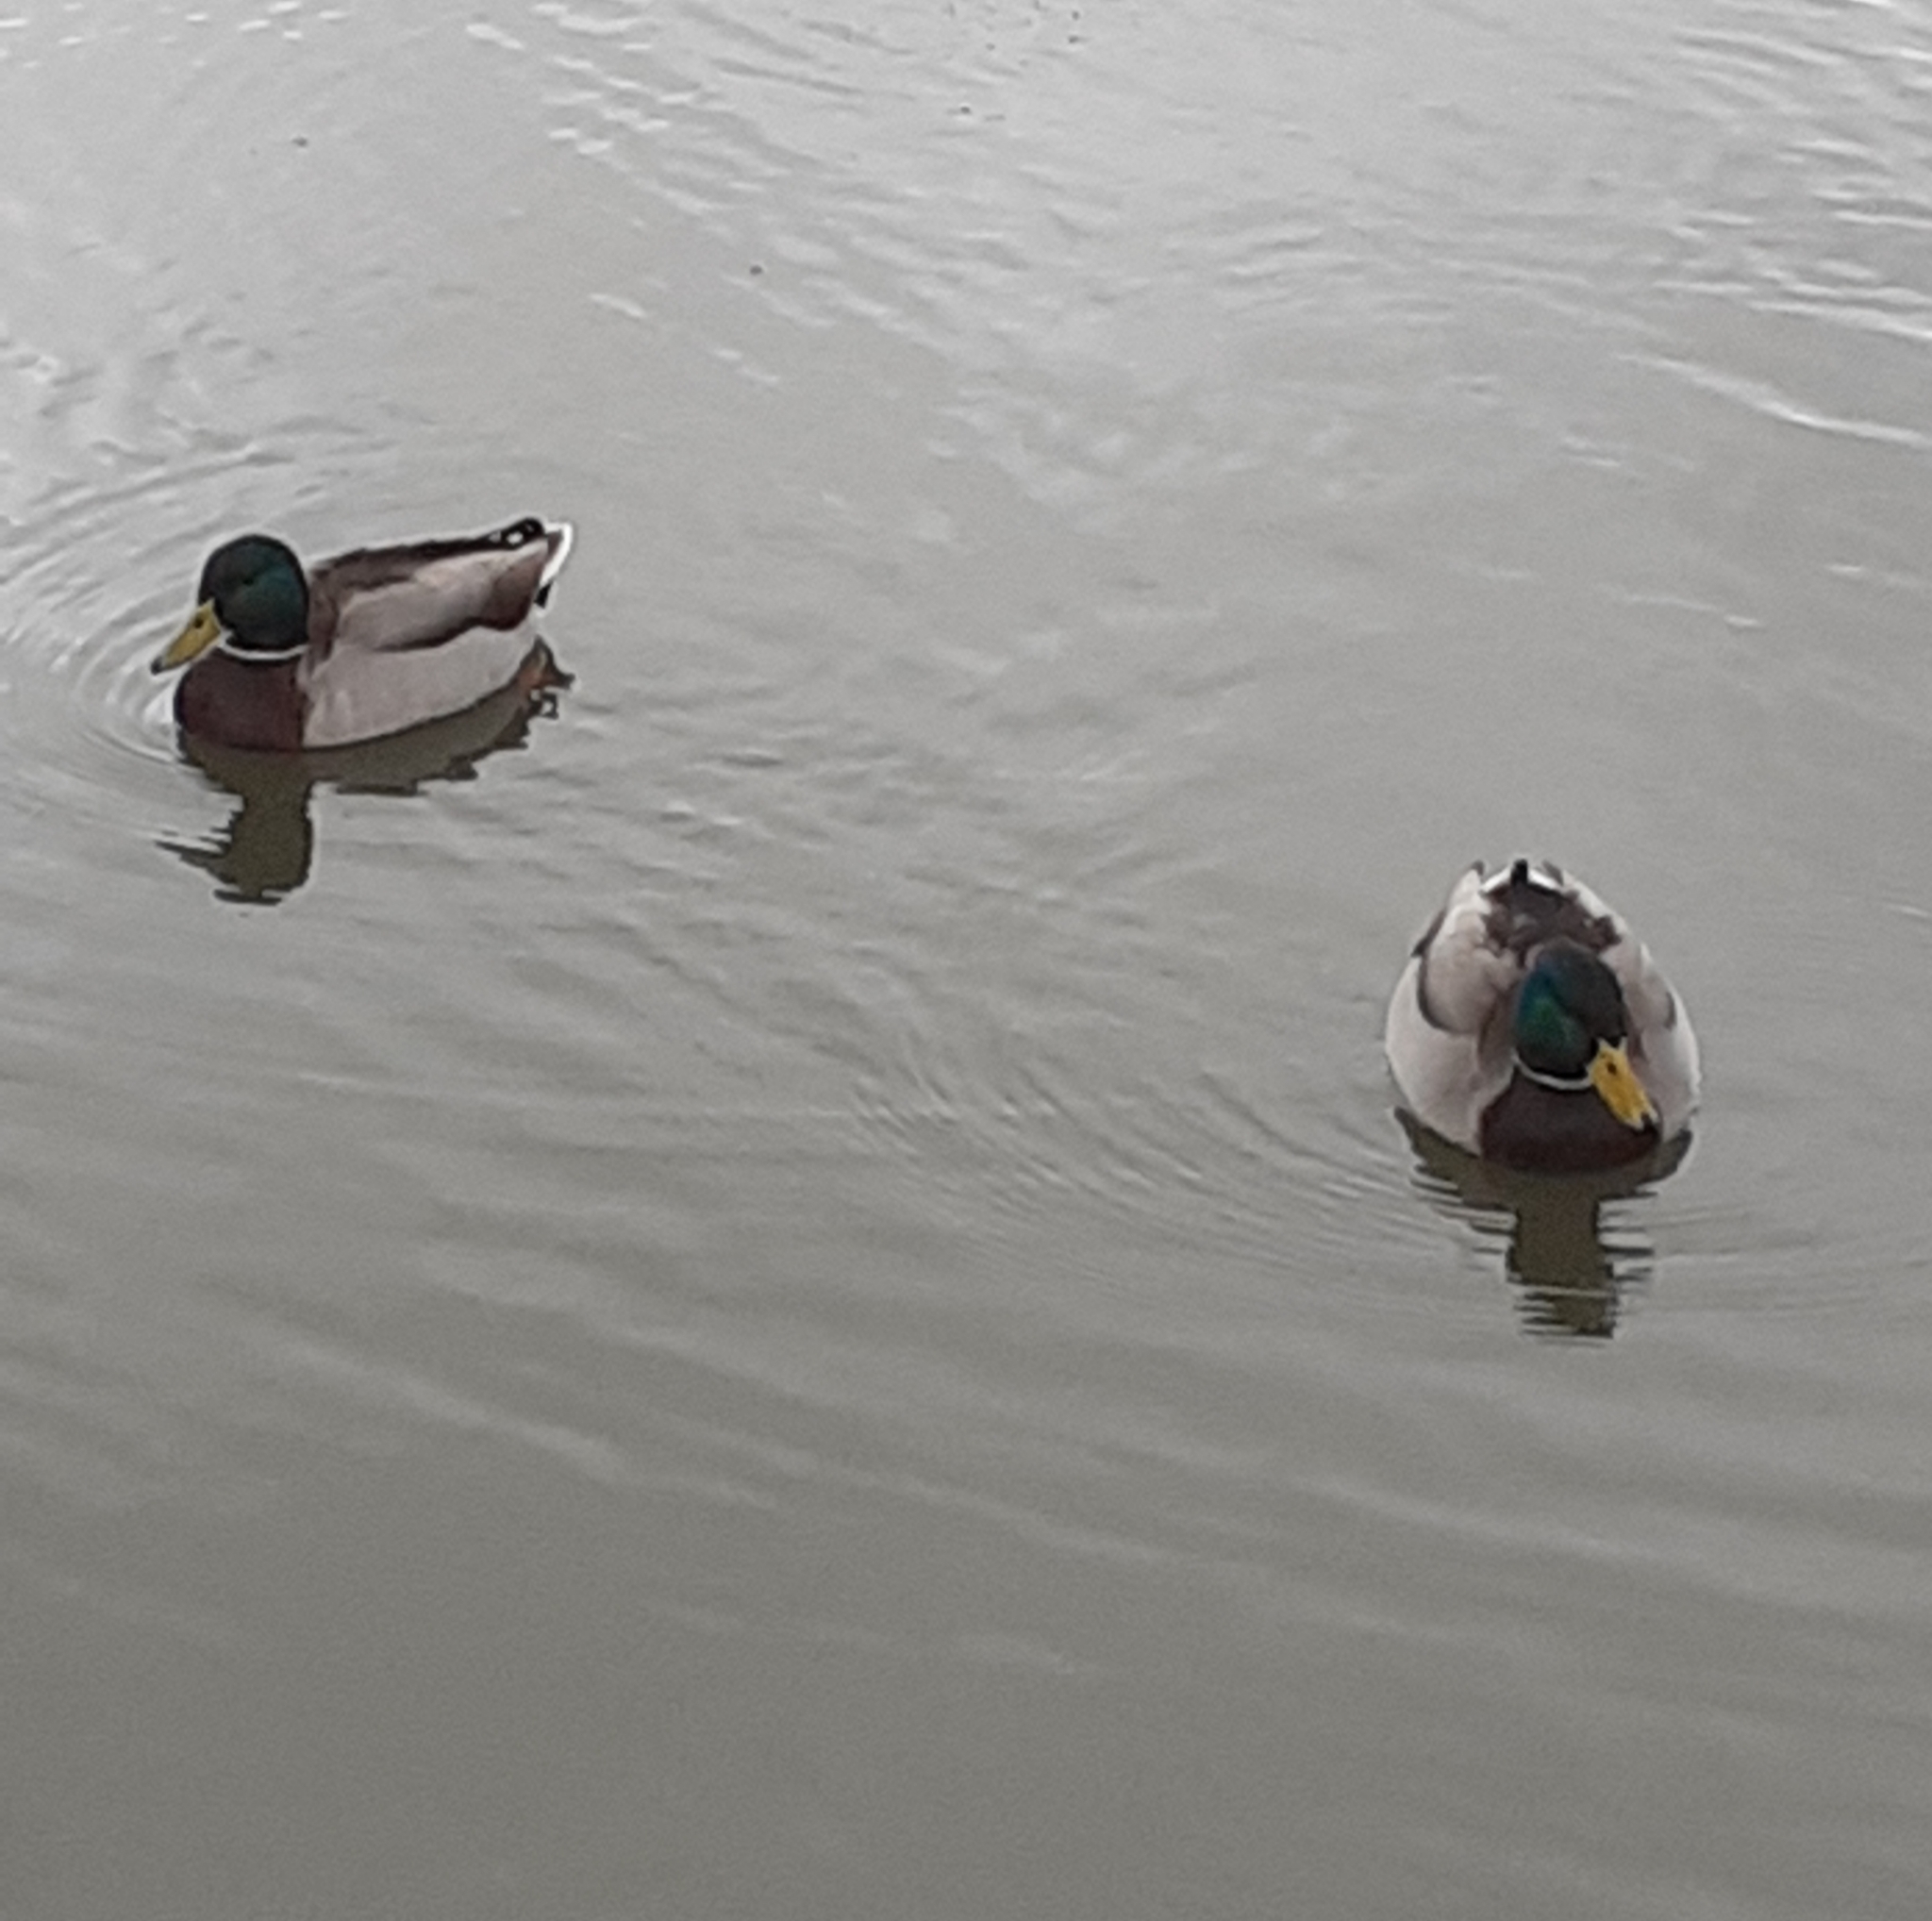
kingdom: Animalia
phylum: Chordata
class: Aves
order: Anseriformes
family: Anatidae
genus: Anas
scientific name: Anas platyrhynchos
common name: Mallard
